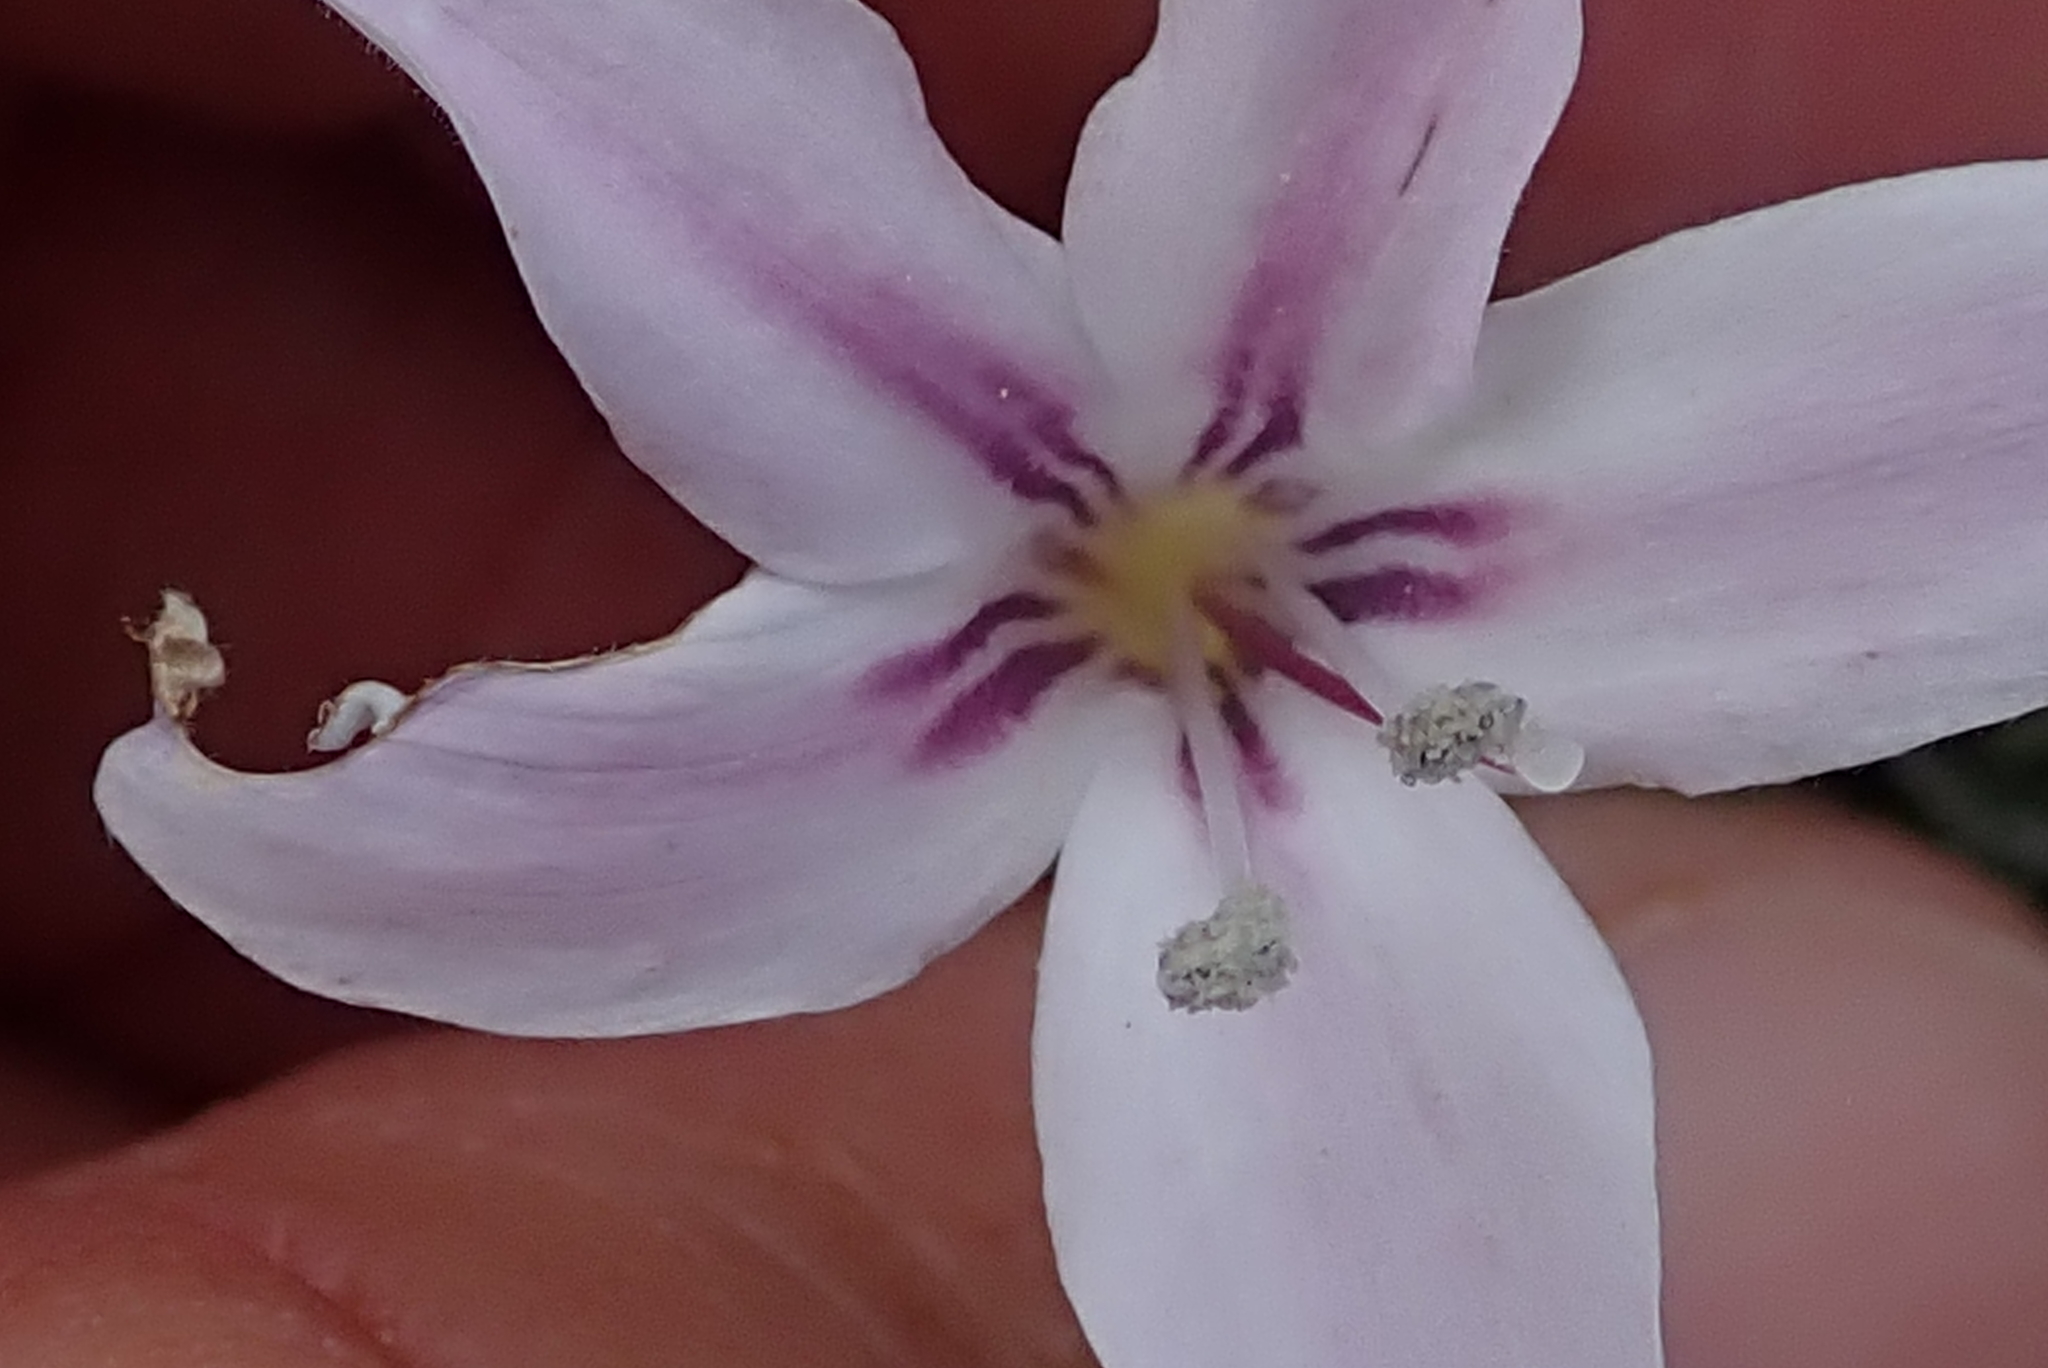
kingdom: Plantae
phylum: Tracheophyta
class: Magnoliopsida
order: Lamiales
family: Acanthaceae
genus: Barleria
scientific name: Barleria pungens
